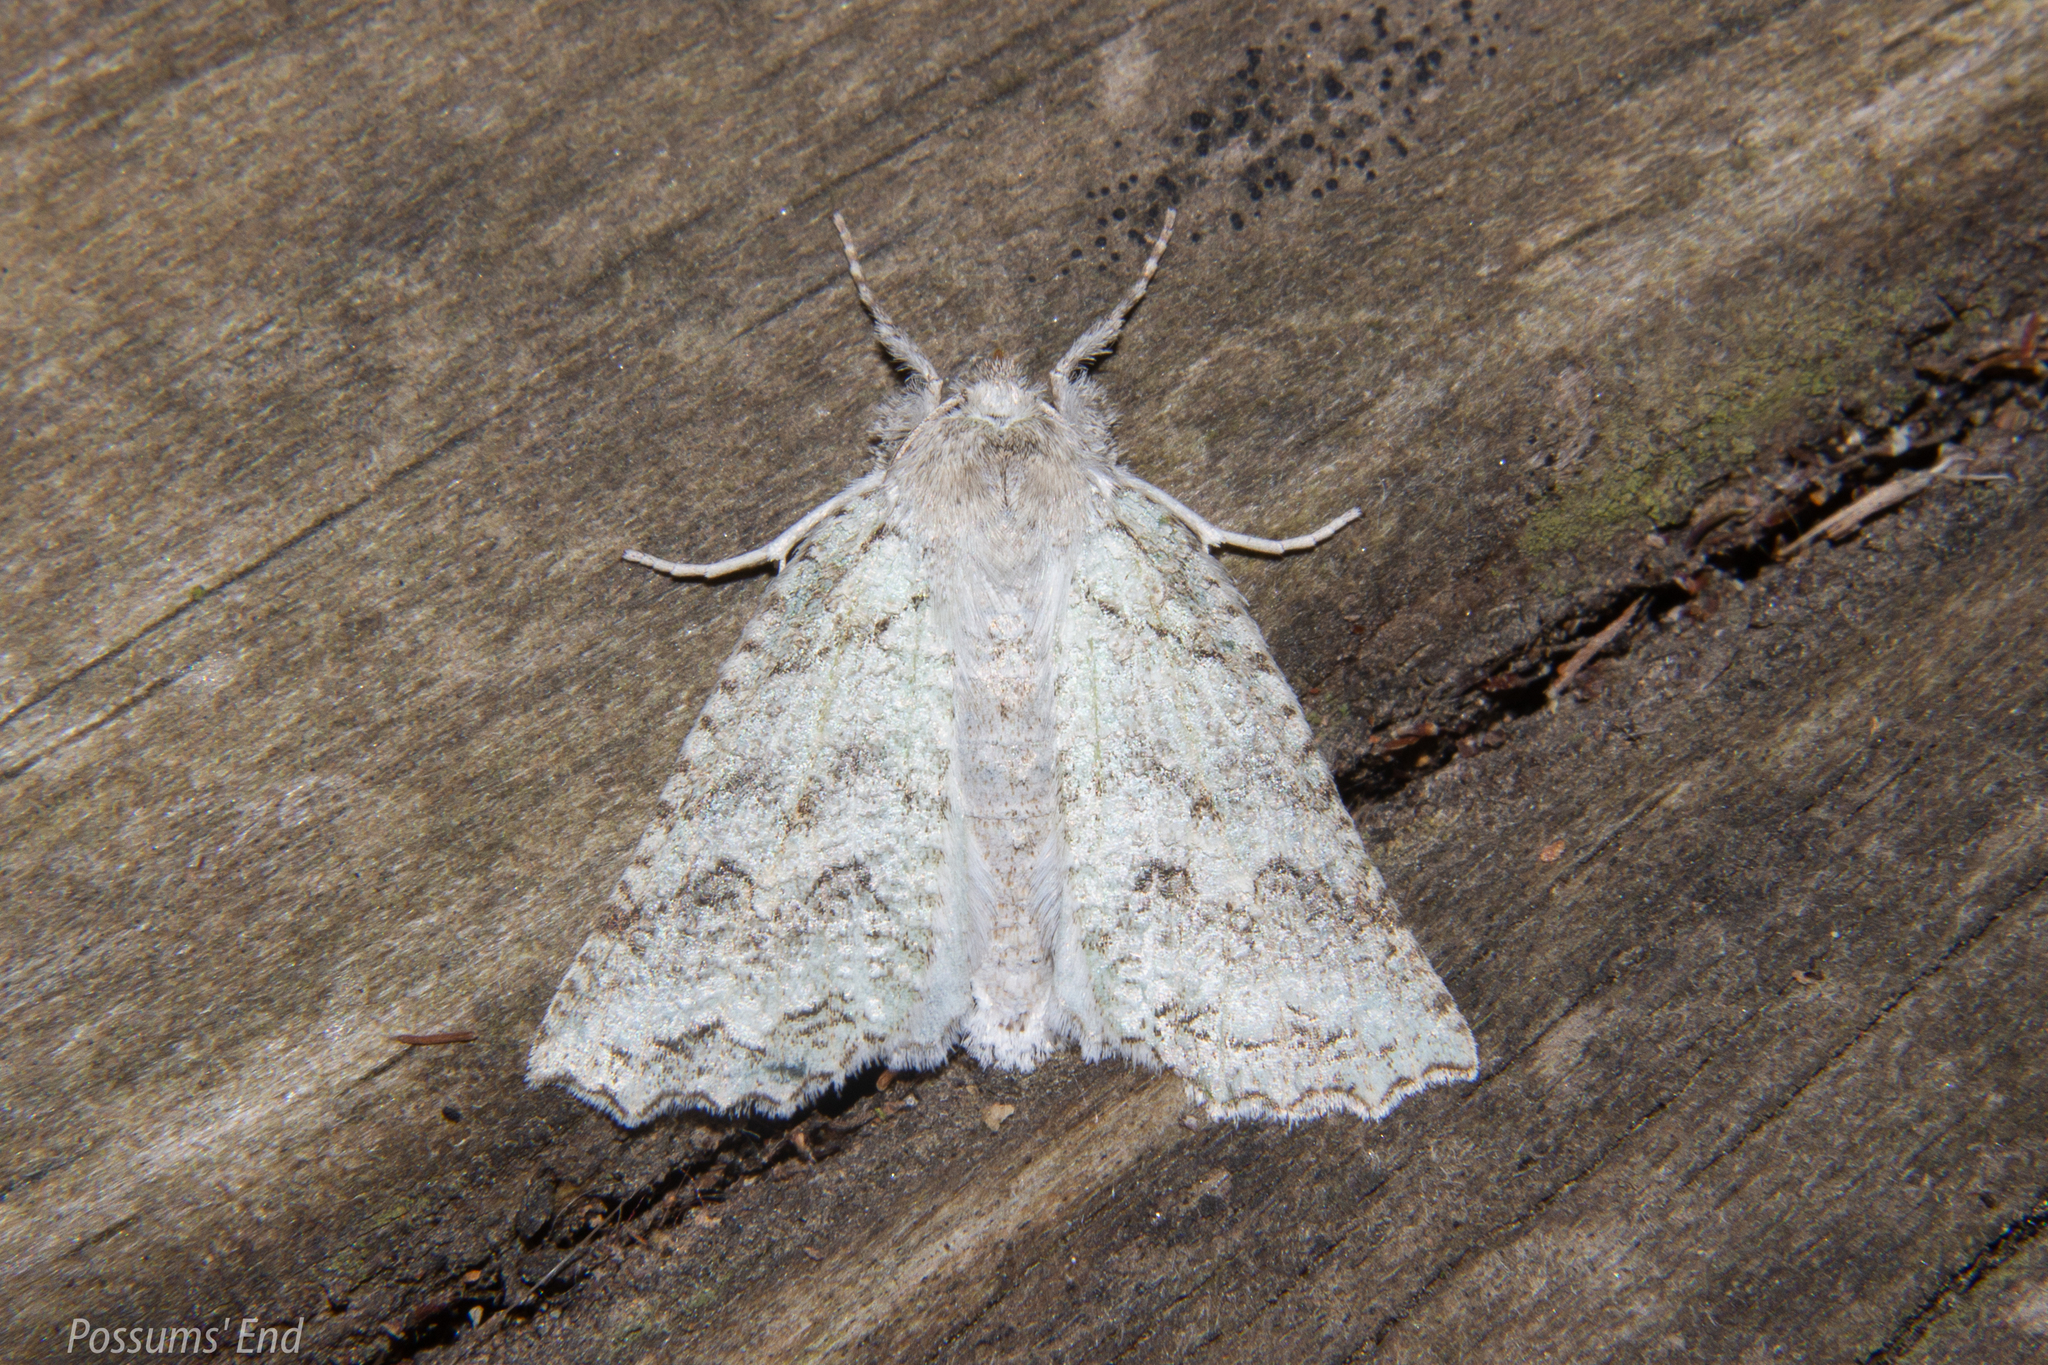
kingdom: Animalia
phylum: Arthropoda
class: Insecta
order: Lepidoptera
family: Geometridae
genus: Declana
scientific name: Declana niveata
